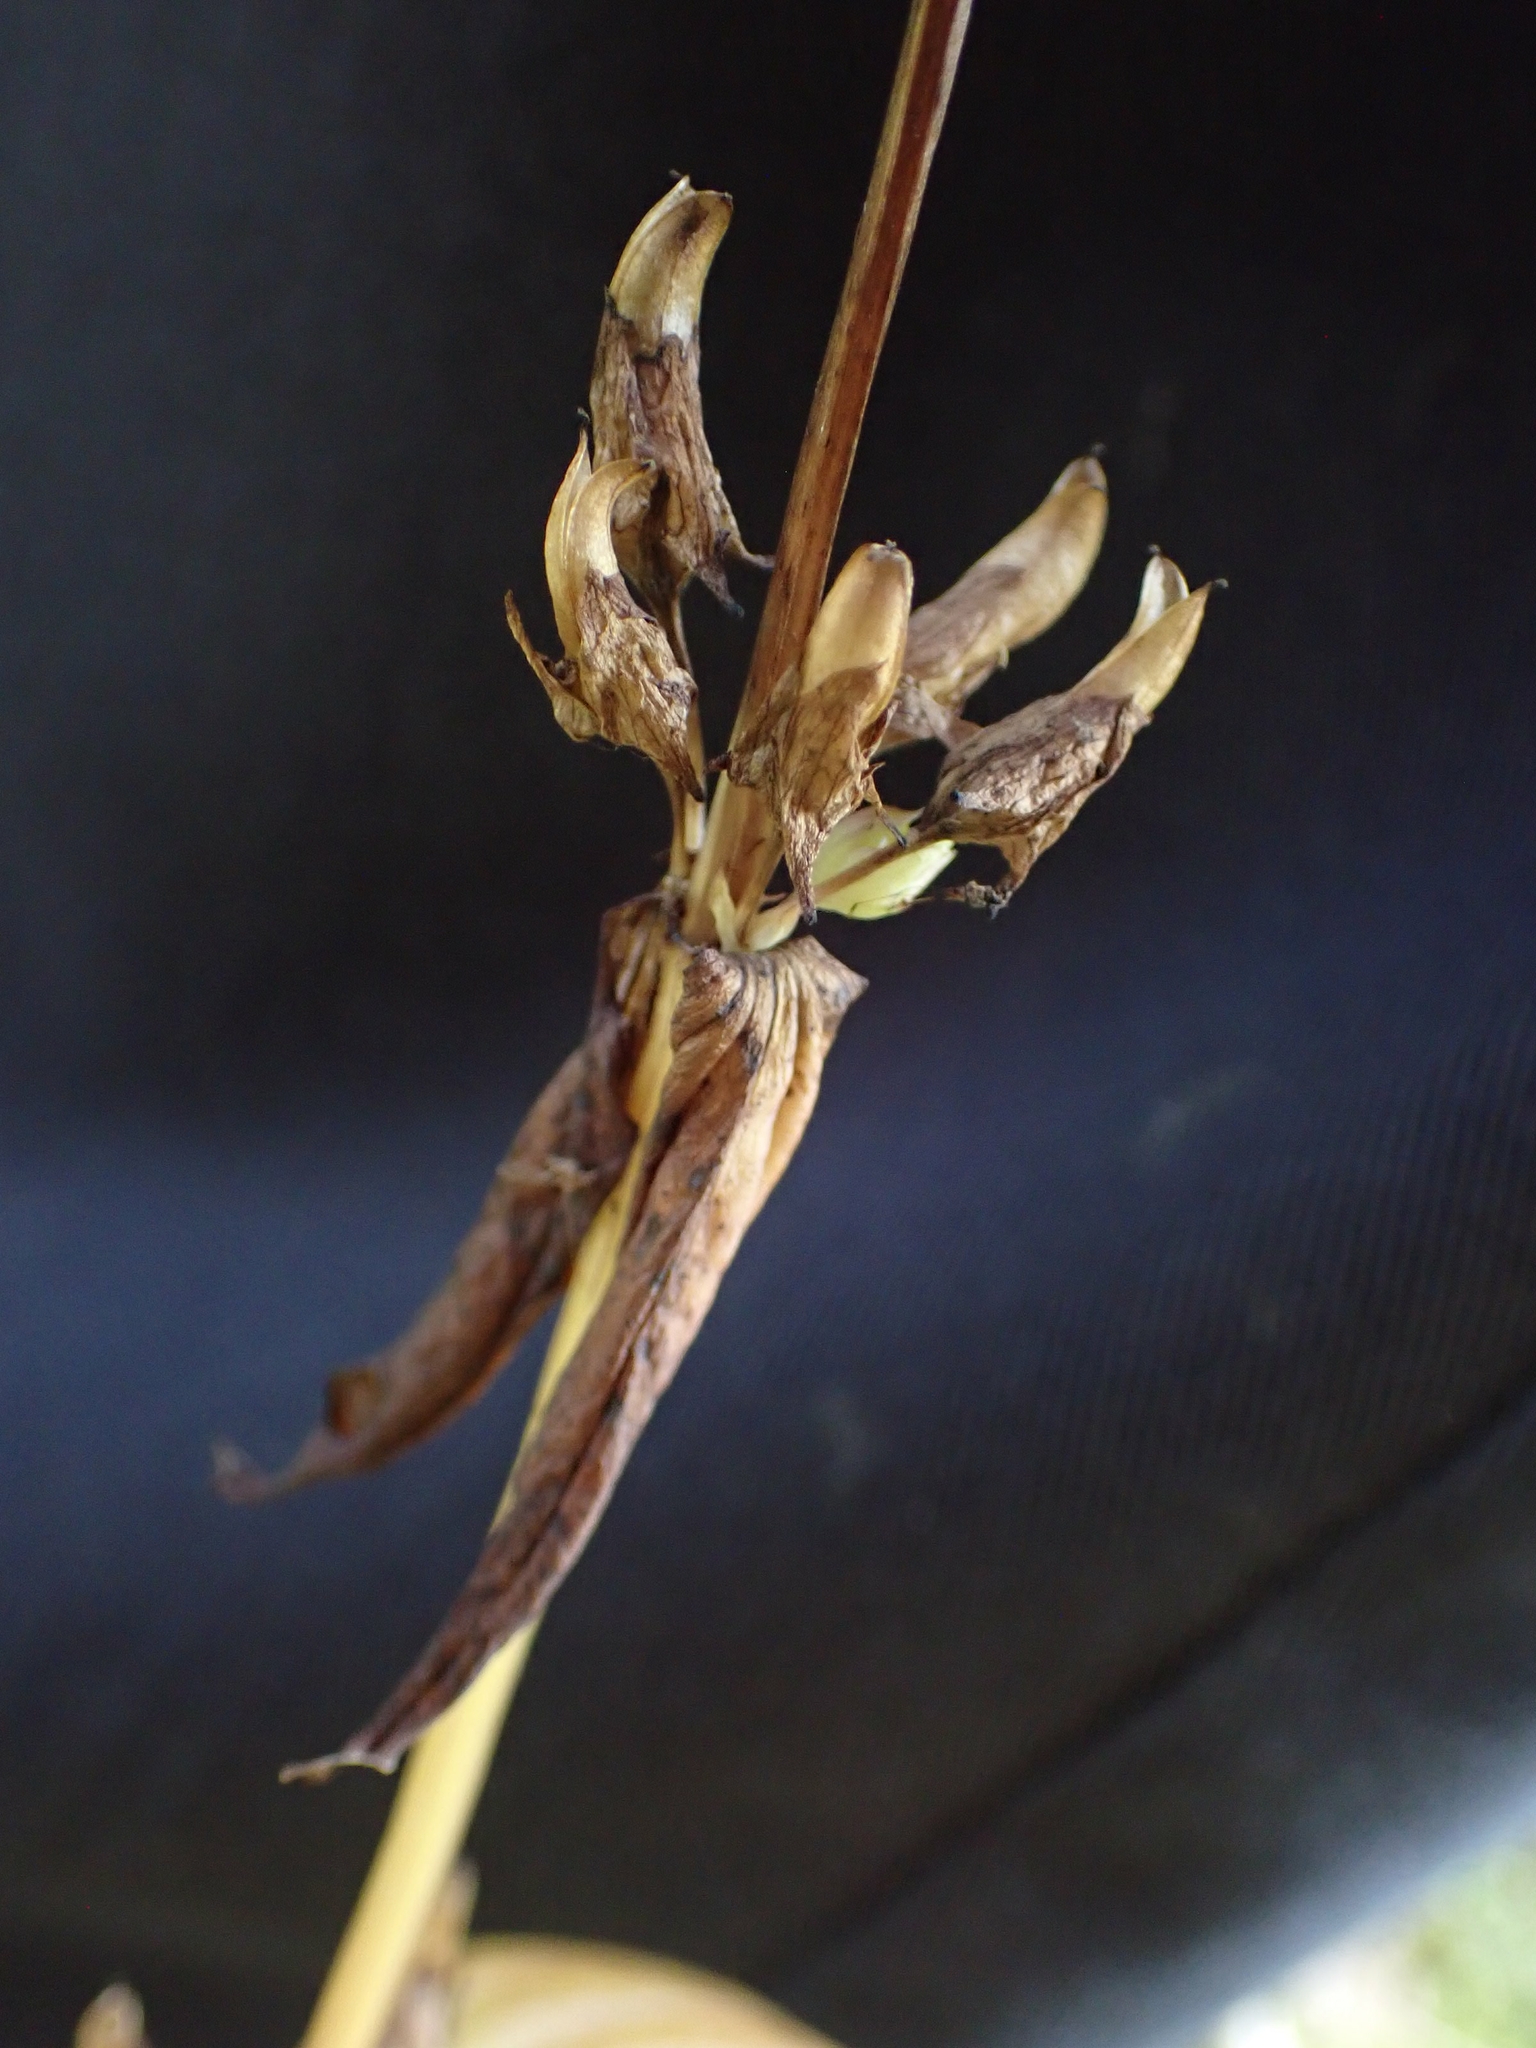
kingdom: Plantae
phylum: Tracheophyta
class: Magnoliopsida
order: Gentianales
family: Gentianaceae
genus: Halenia
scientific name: Halenia deflexa
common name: American spurred gentian
